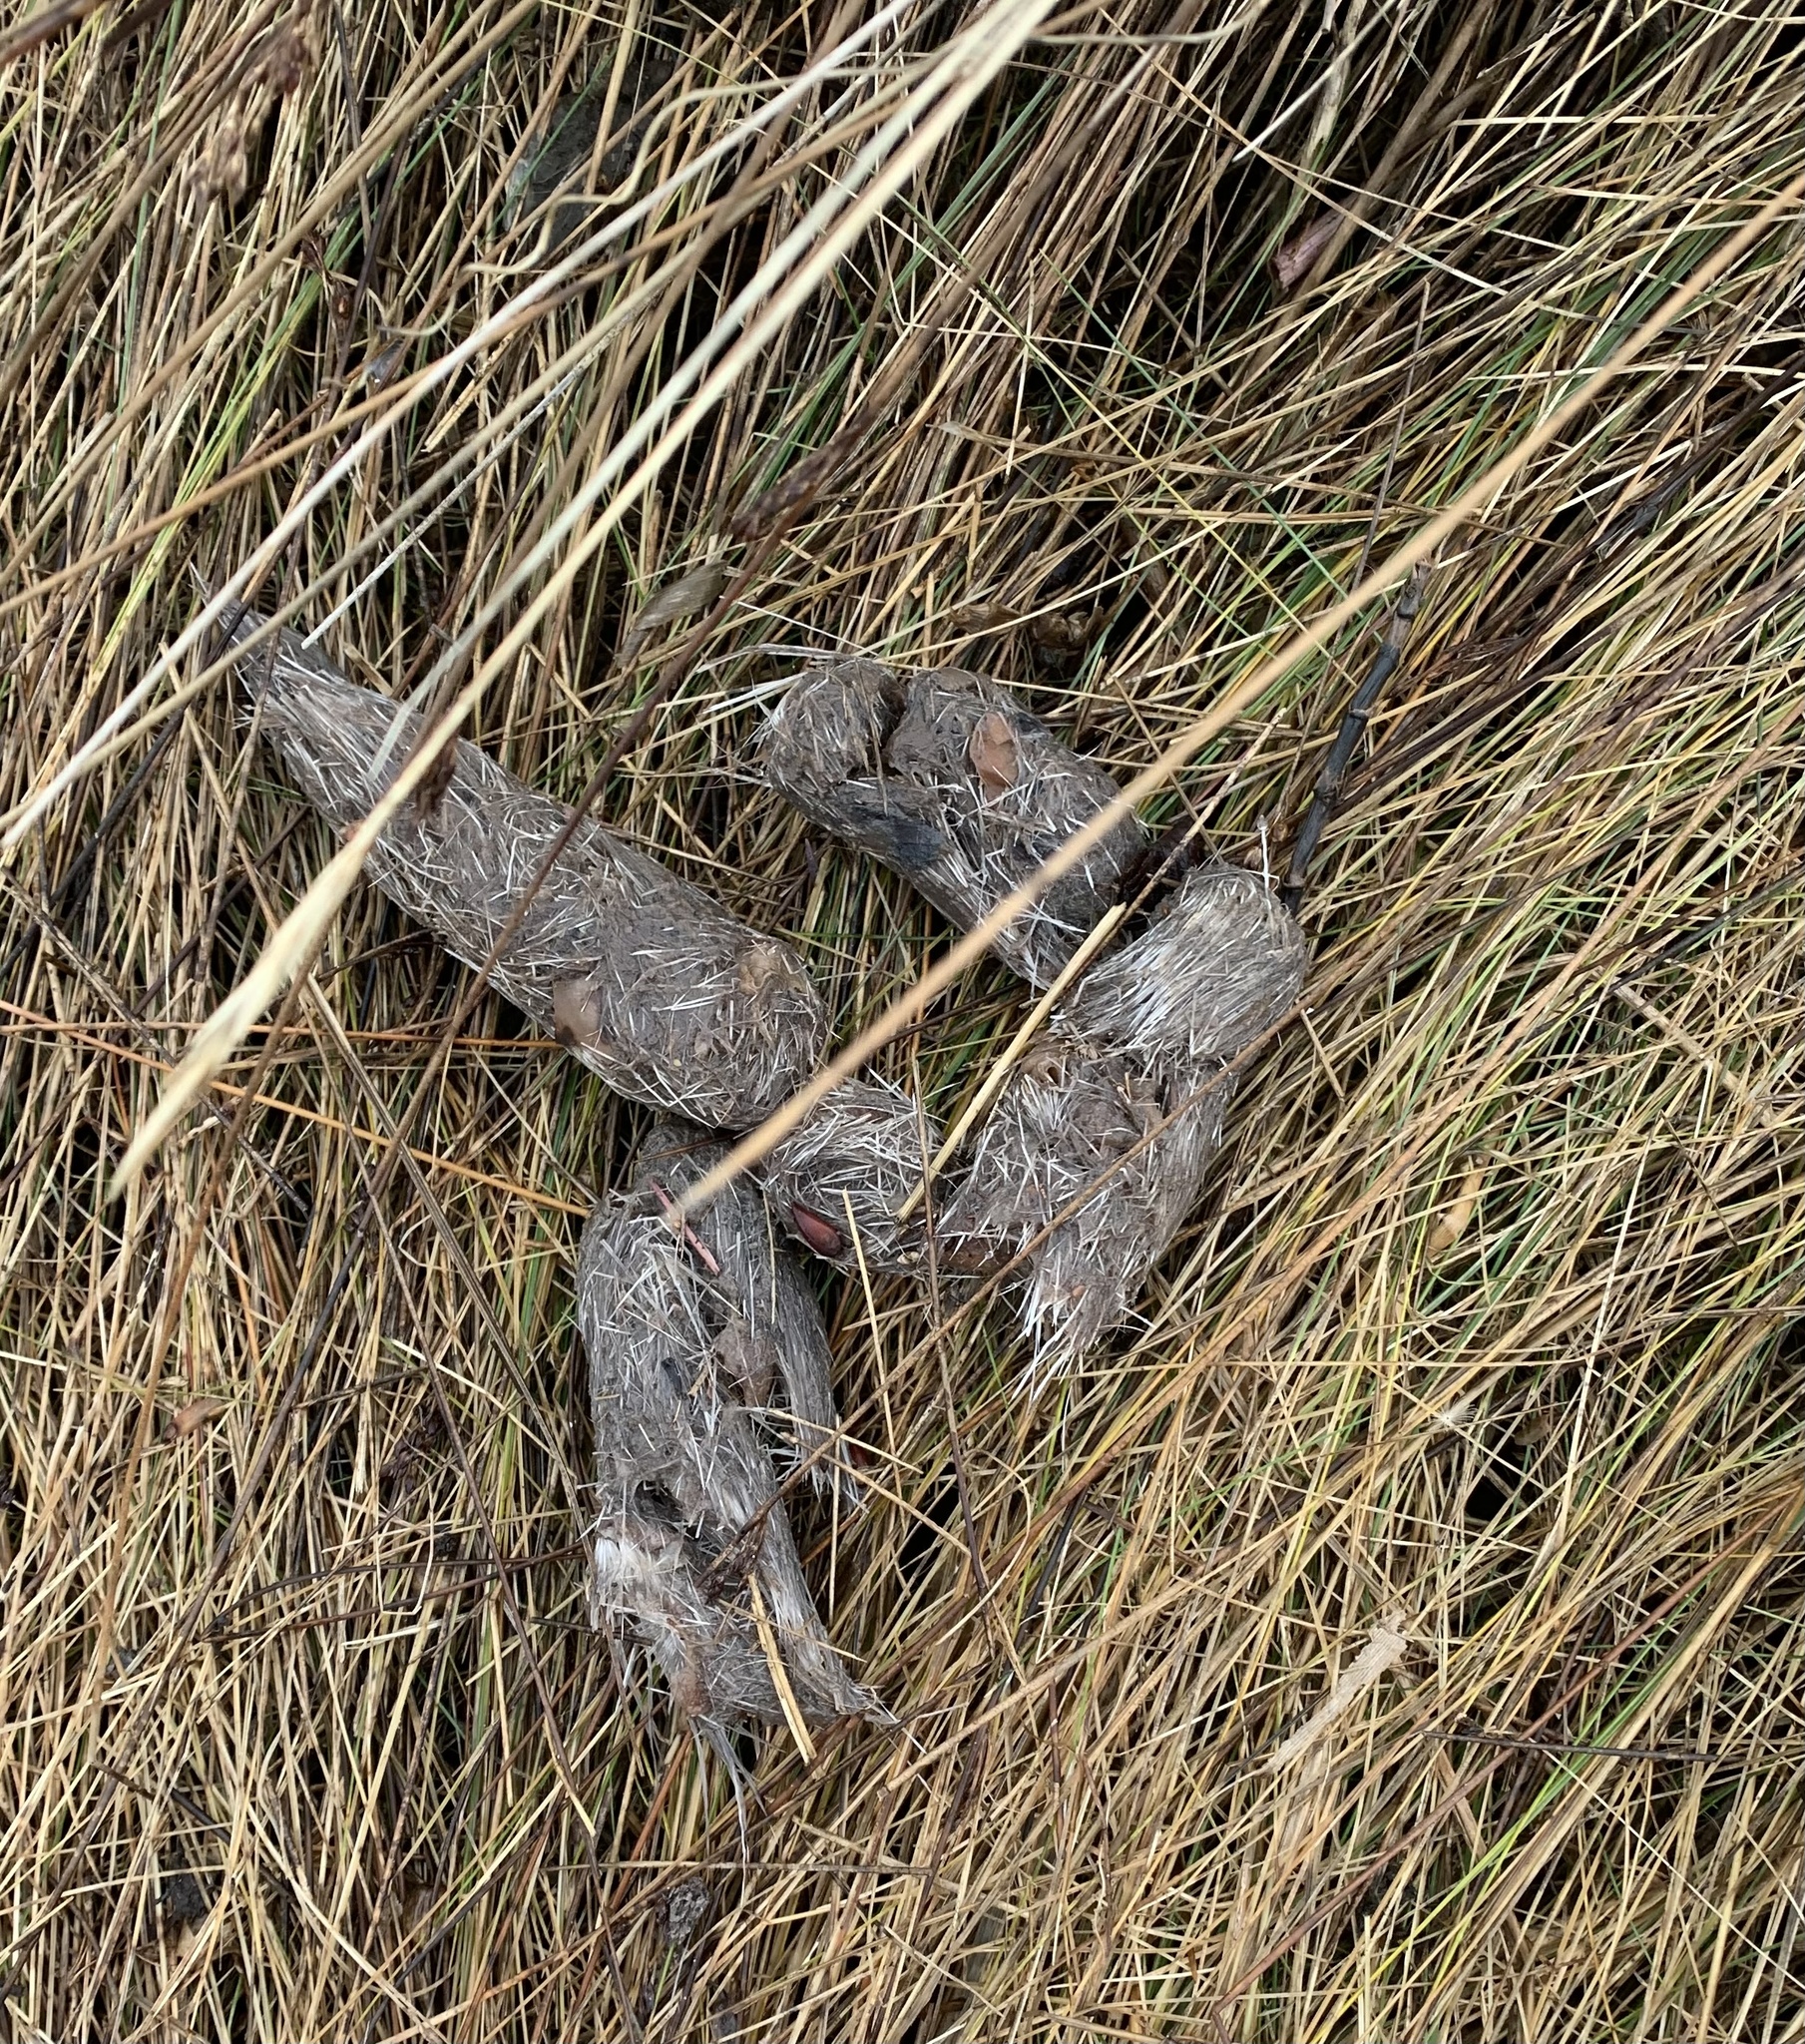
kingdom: Animalia
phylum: Chordata
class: Mammalia
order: Carnivora
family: Canidae
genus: Canis
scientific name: Canis latrans
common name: Coyote
